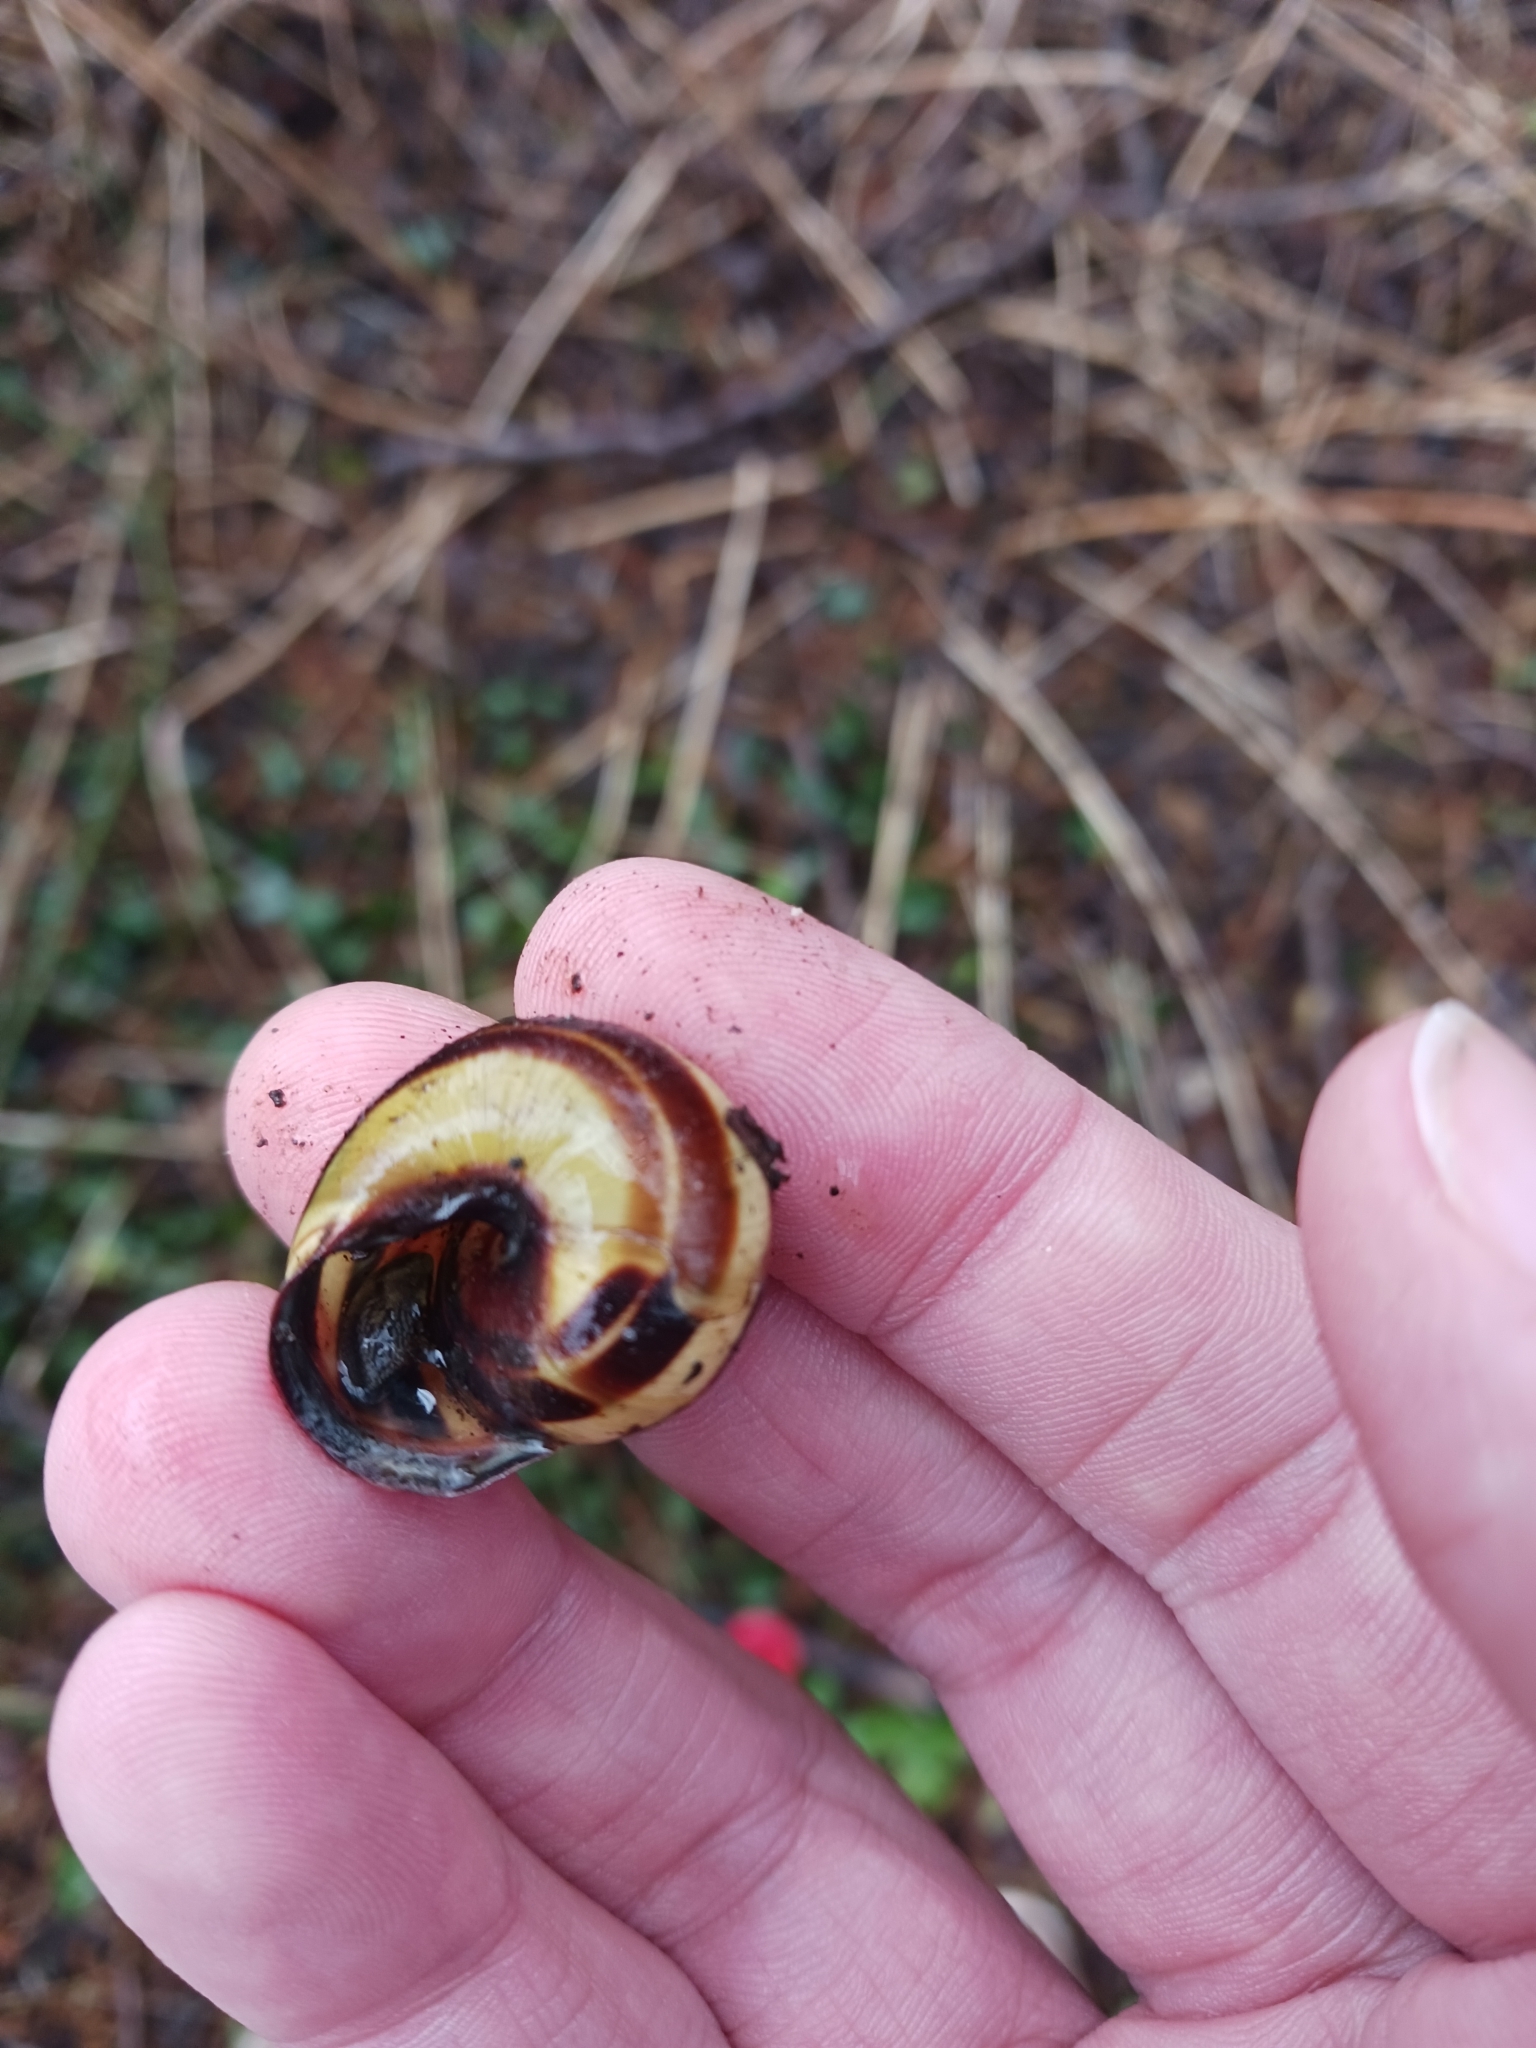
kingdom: Animalia
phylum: Mollusca
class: Gastropoda
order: Stylommatophora
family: Helicidae
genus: Cepaea
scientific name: Cepaea nemoralis
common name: Grovesnail
